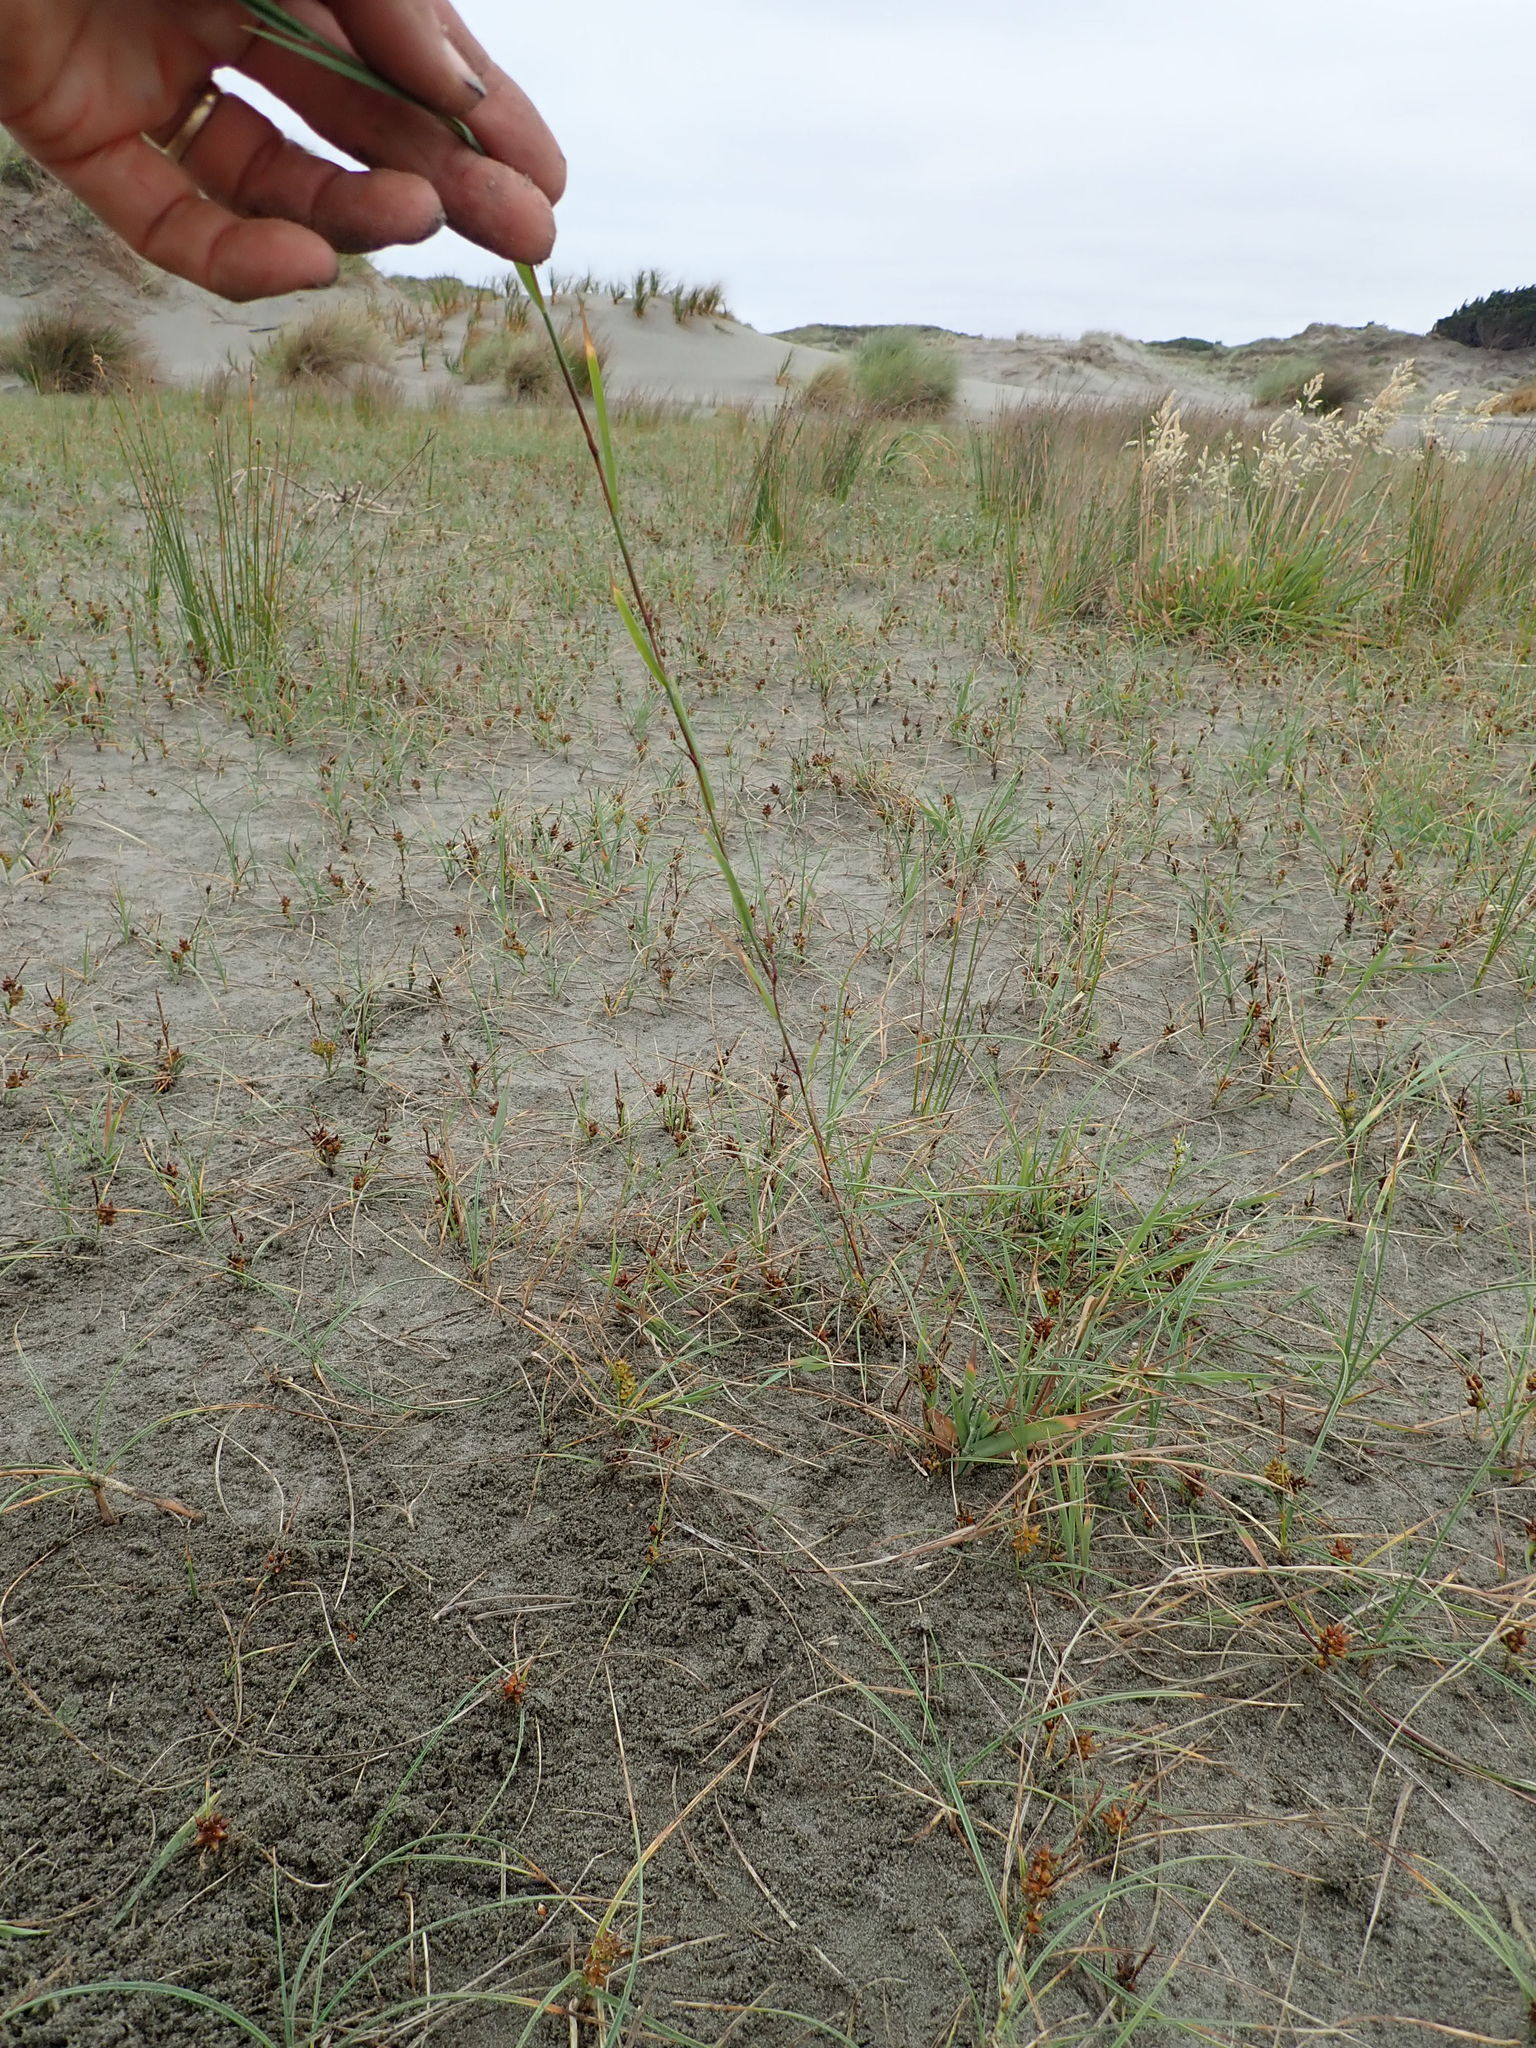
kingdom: Plantae
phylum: Tracheophyta
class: Liliopsida
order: Poales
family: Poaceae
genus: Agrostis
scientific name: Agrostis stolonifera
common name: Creeping bentgrass
